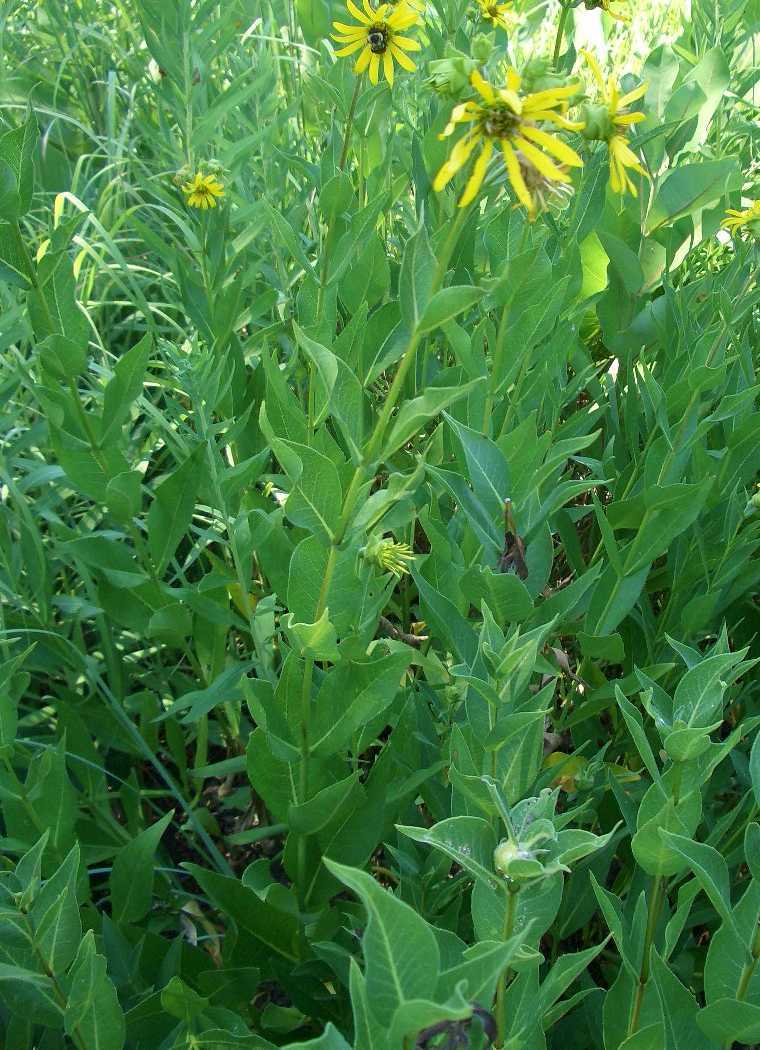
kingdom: Plantae
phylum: Tracheophyta
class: Magnoliopsida
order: Asterales
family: Asteraceae
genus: Silphium
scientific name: Silphium integrifolium
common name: Whole-leaf rosinweed
